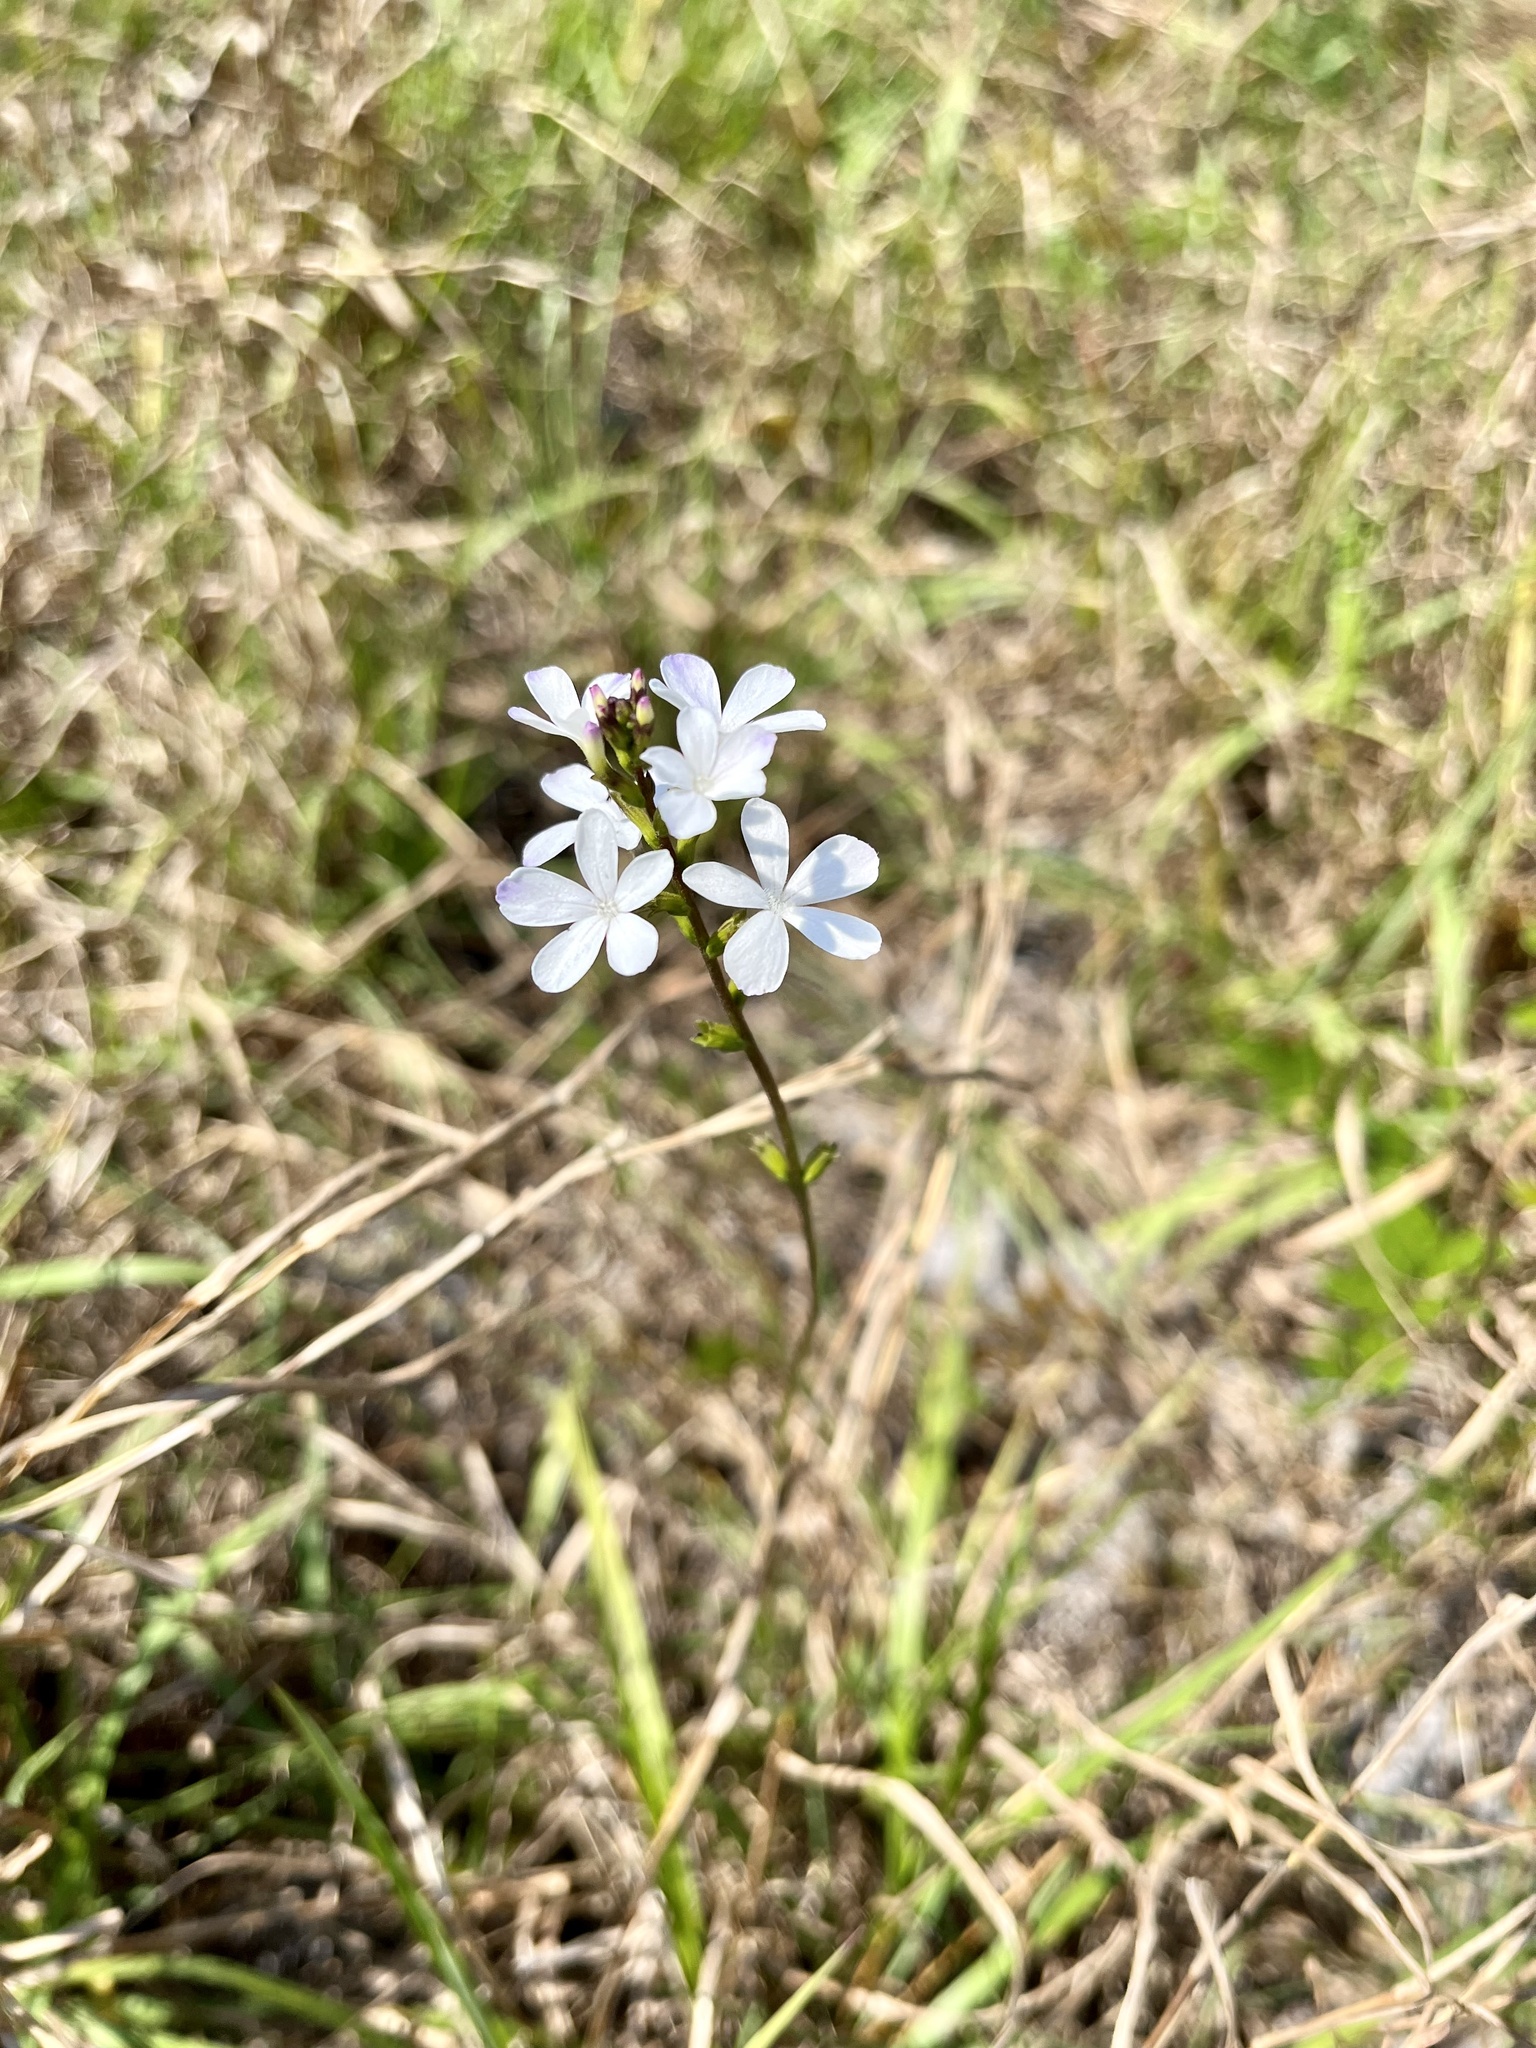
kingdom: Plantae
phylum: Tracheophyta
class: Magnoliopsida
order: Lamiales
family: Orobanchaceae
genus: Buchnera
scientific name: Buchnera floridana
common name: Florida bluehearts
